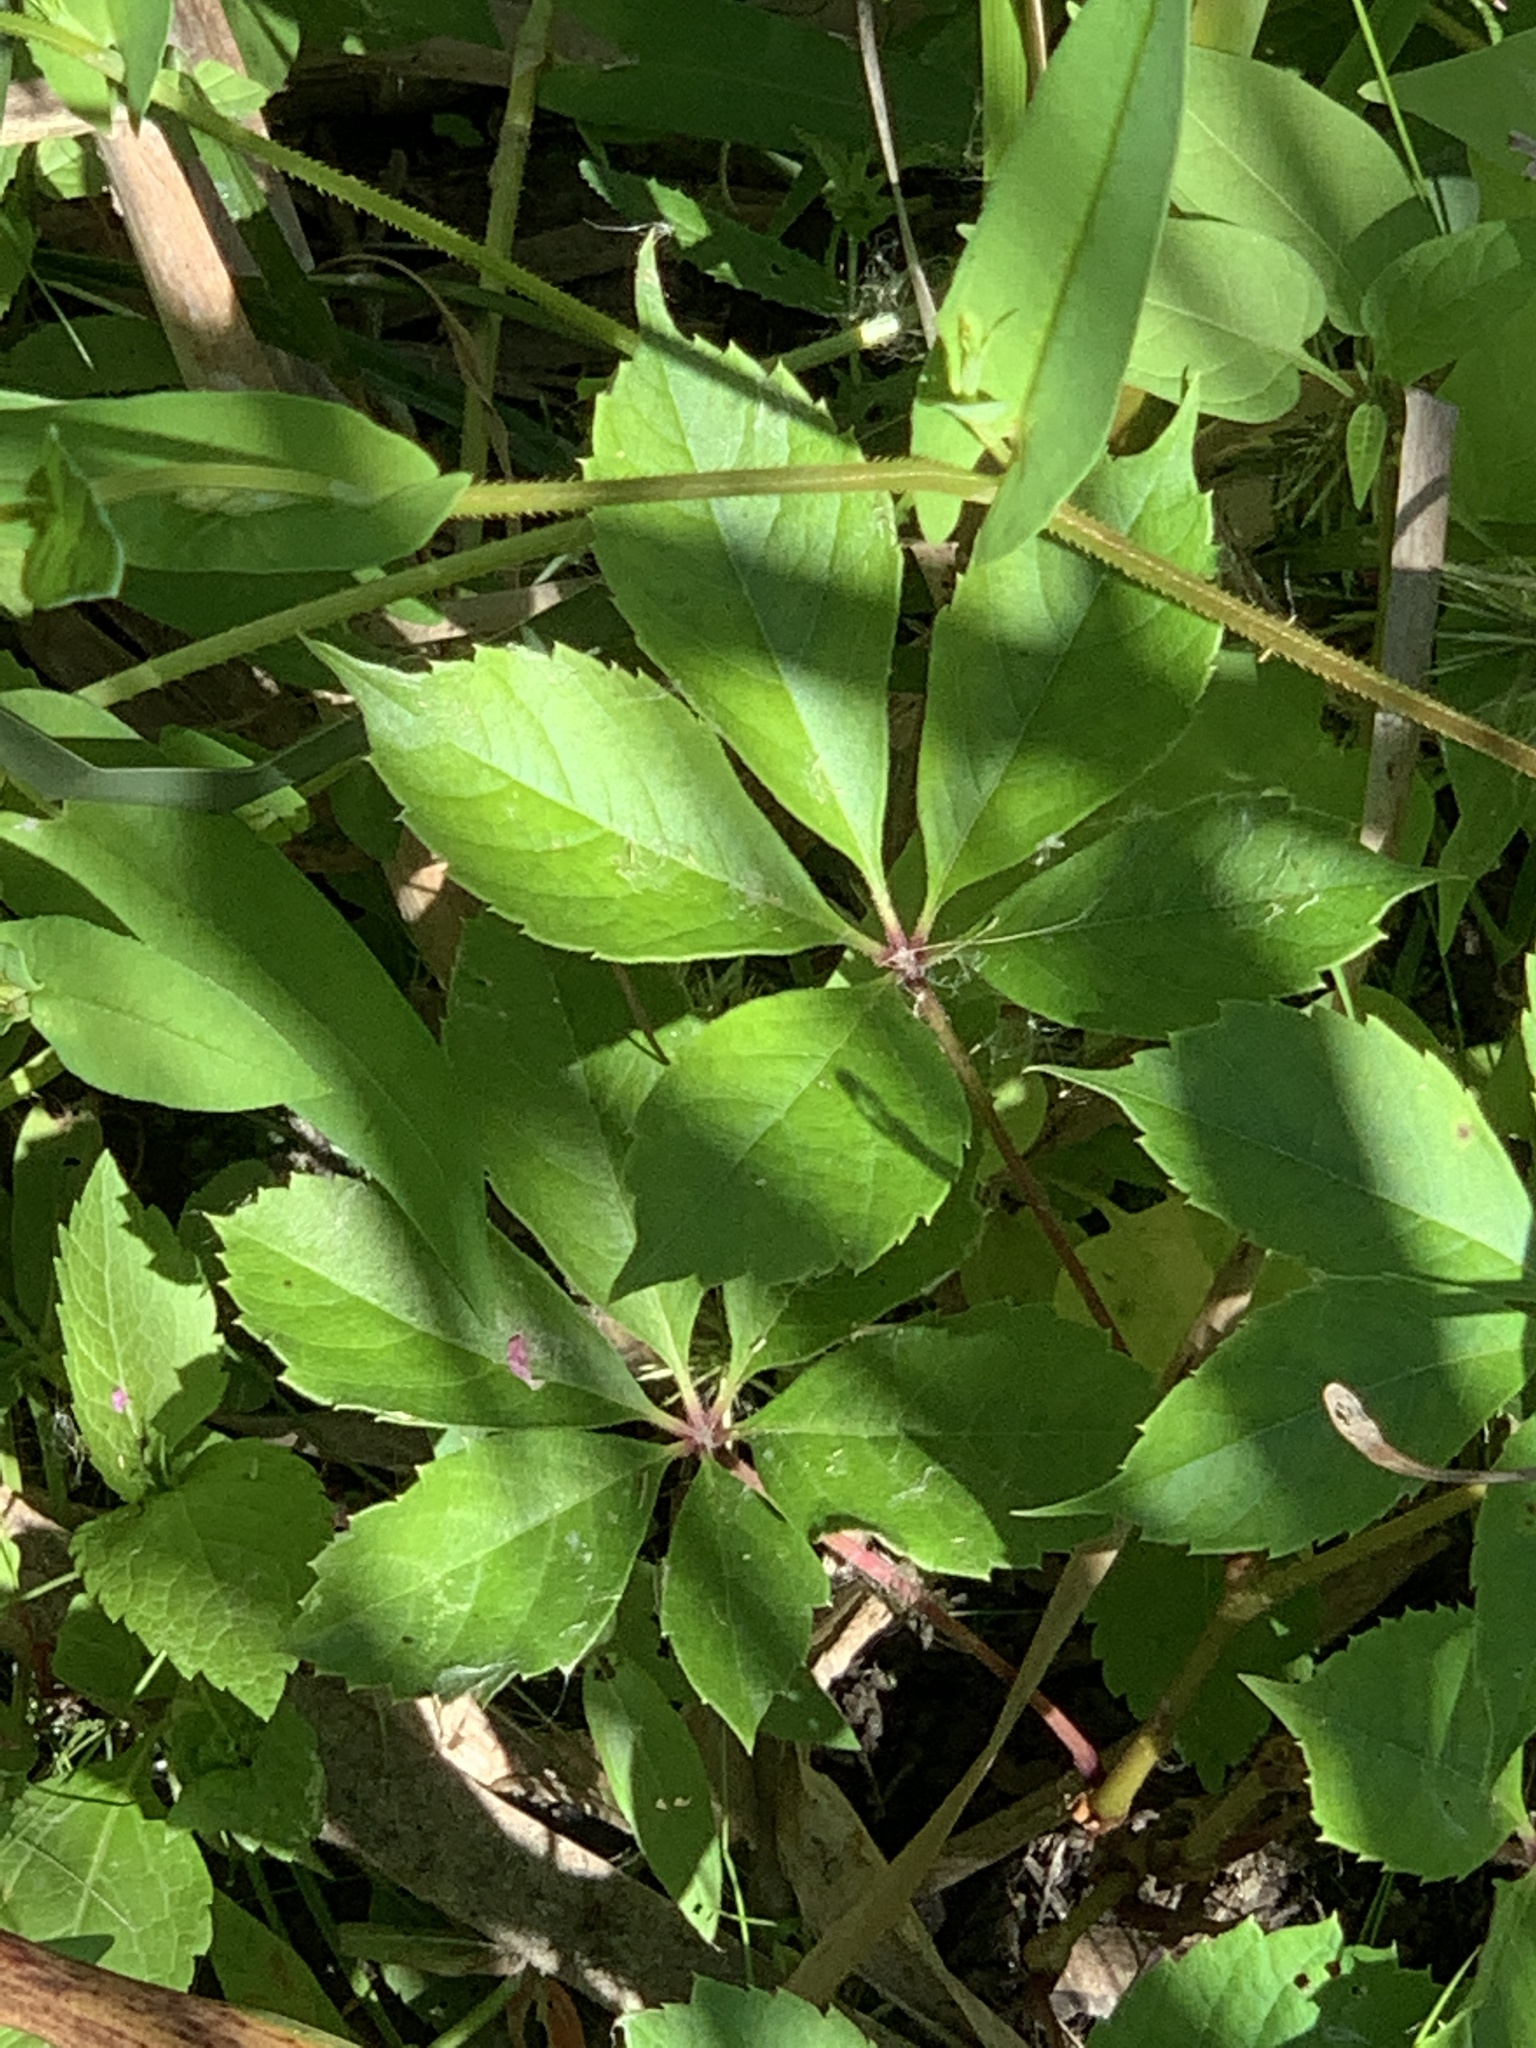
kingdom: Plantae
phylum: Tracheophyta
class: Magnoliopsida
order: Vitales
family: Vitaceae
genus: Parthenocissus
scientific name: Parthenocissus quinquefolia
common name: Virginia-creeper
